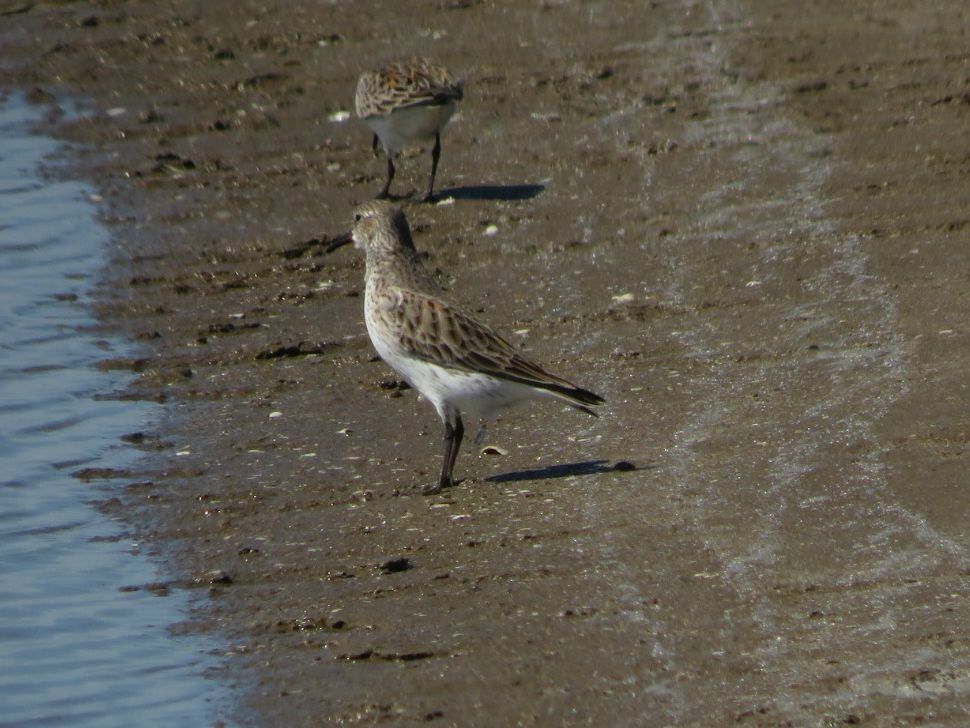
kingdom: Animalia
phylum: Chordata
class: Aves
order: Charadriiformes
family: Scolopacidae
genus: Calidris
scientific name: Calidris fuscicollis
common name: White-rumped sandpiper
